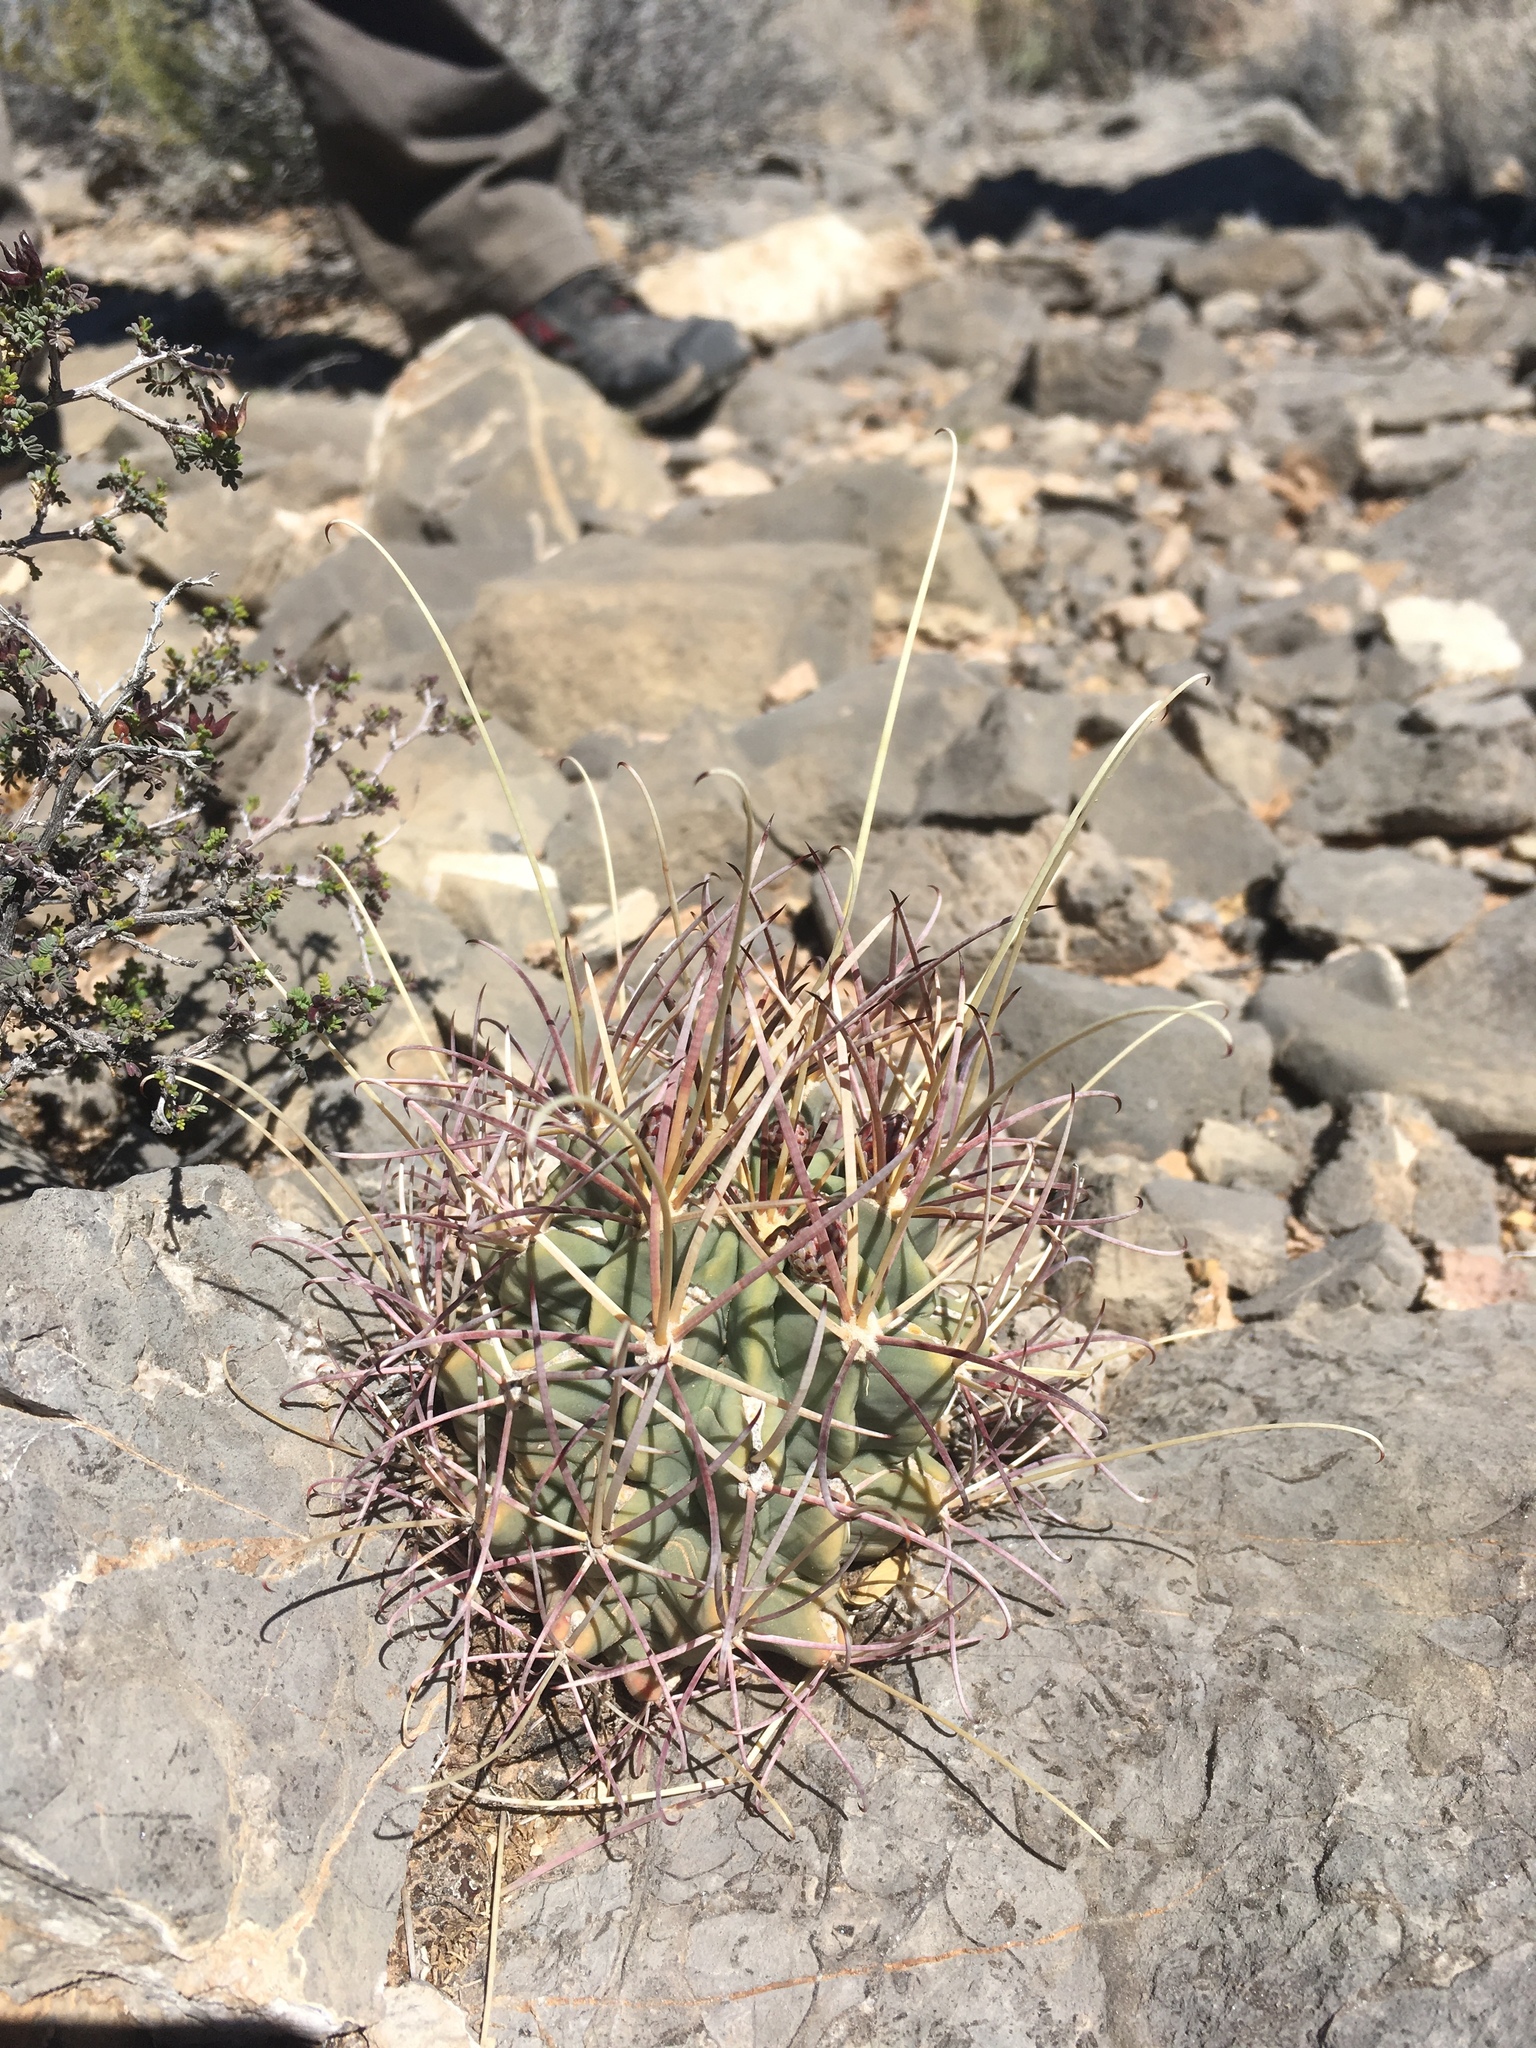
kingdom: Plantae
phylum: Tracheophyta
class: Magnoliopsida
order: Caryophyllales
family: Cactaceae
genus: Ferocactus
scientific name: Ferocactus uncinatus
